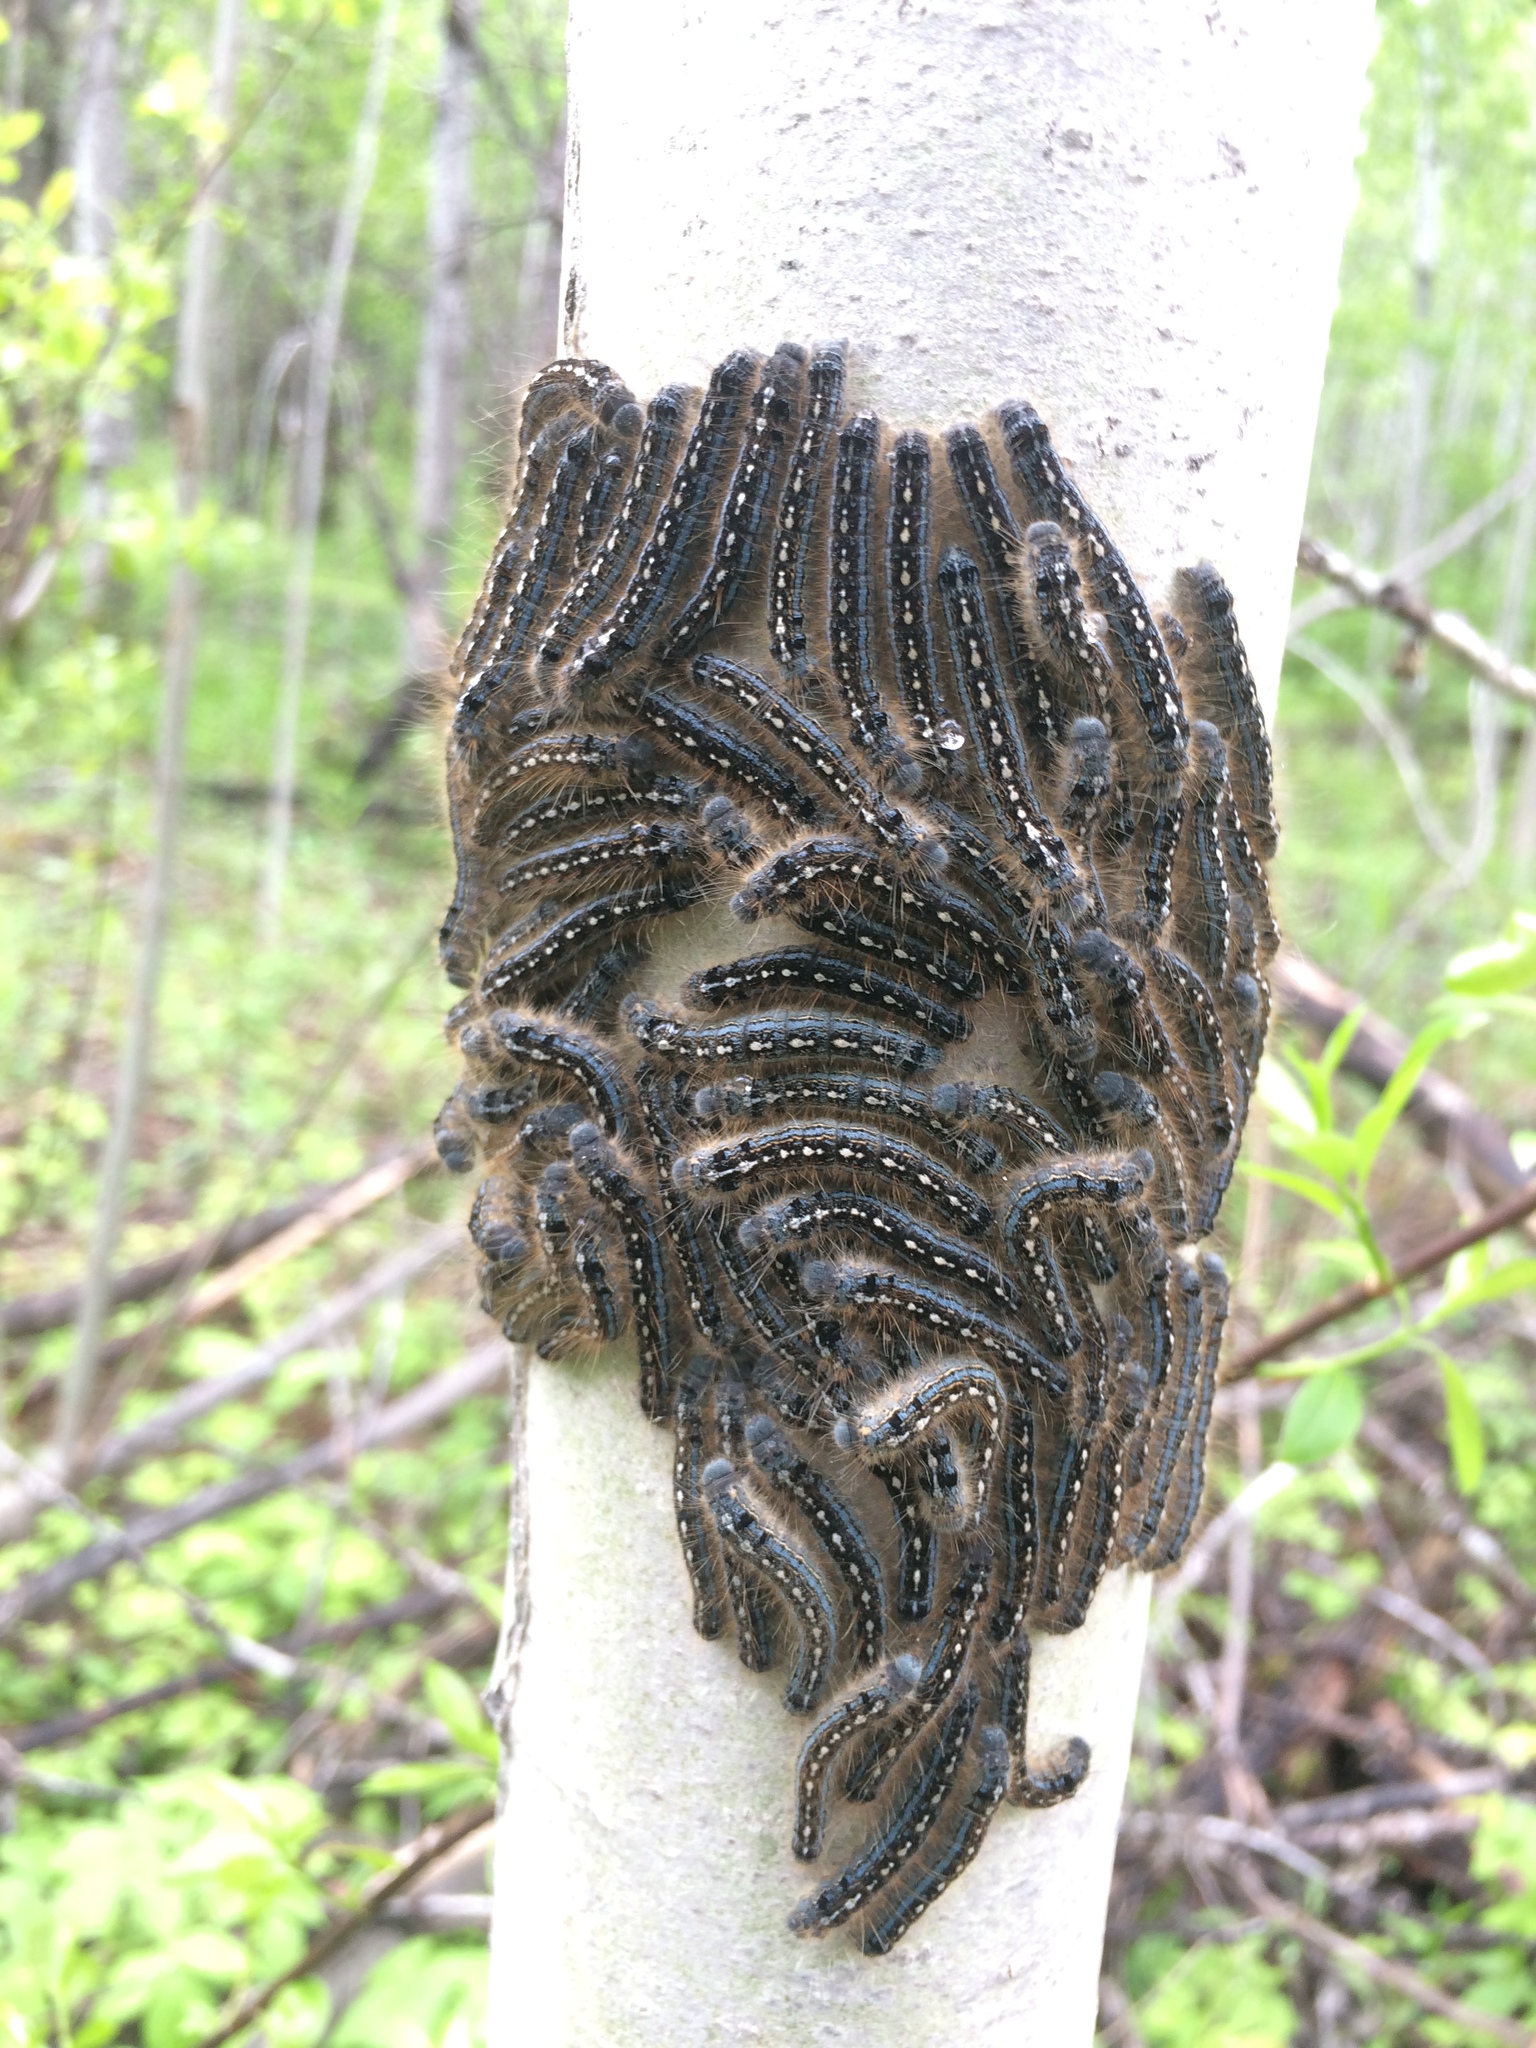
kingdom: Animalia
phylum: Arthropoda
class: Insecta
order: Lepidoptera
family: Lasiocampidae
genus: Malacosoma
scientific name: Malacosoma disstria
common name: Forest tent caterpillar
